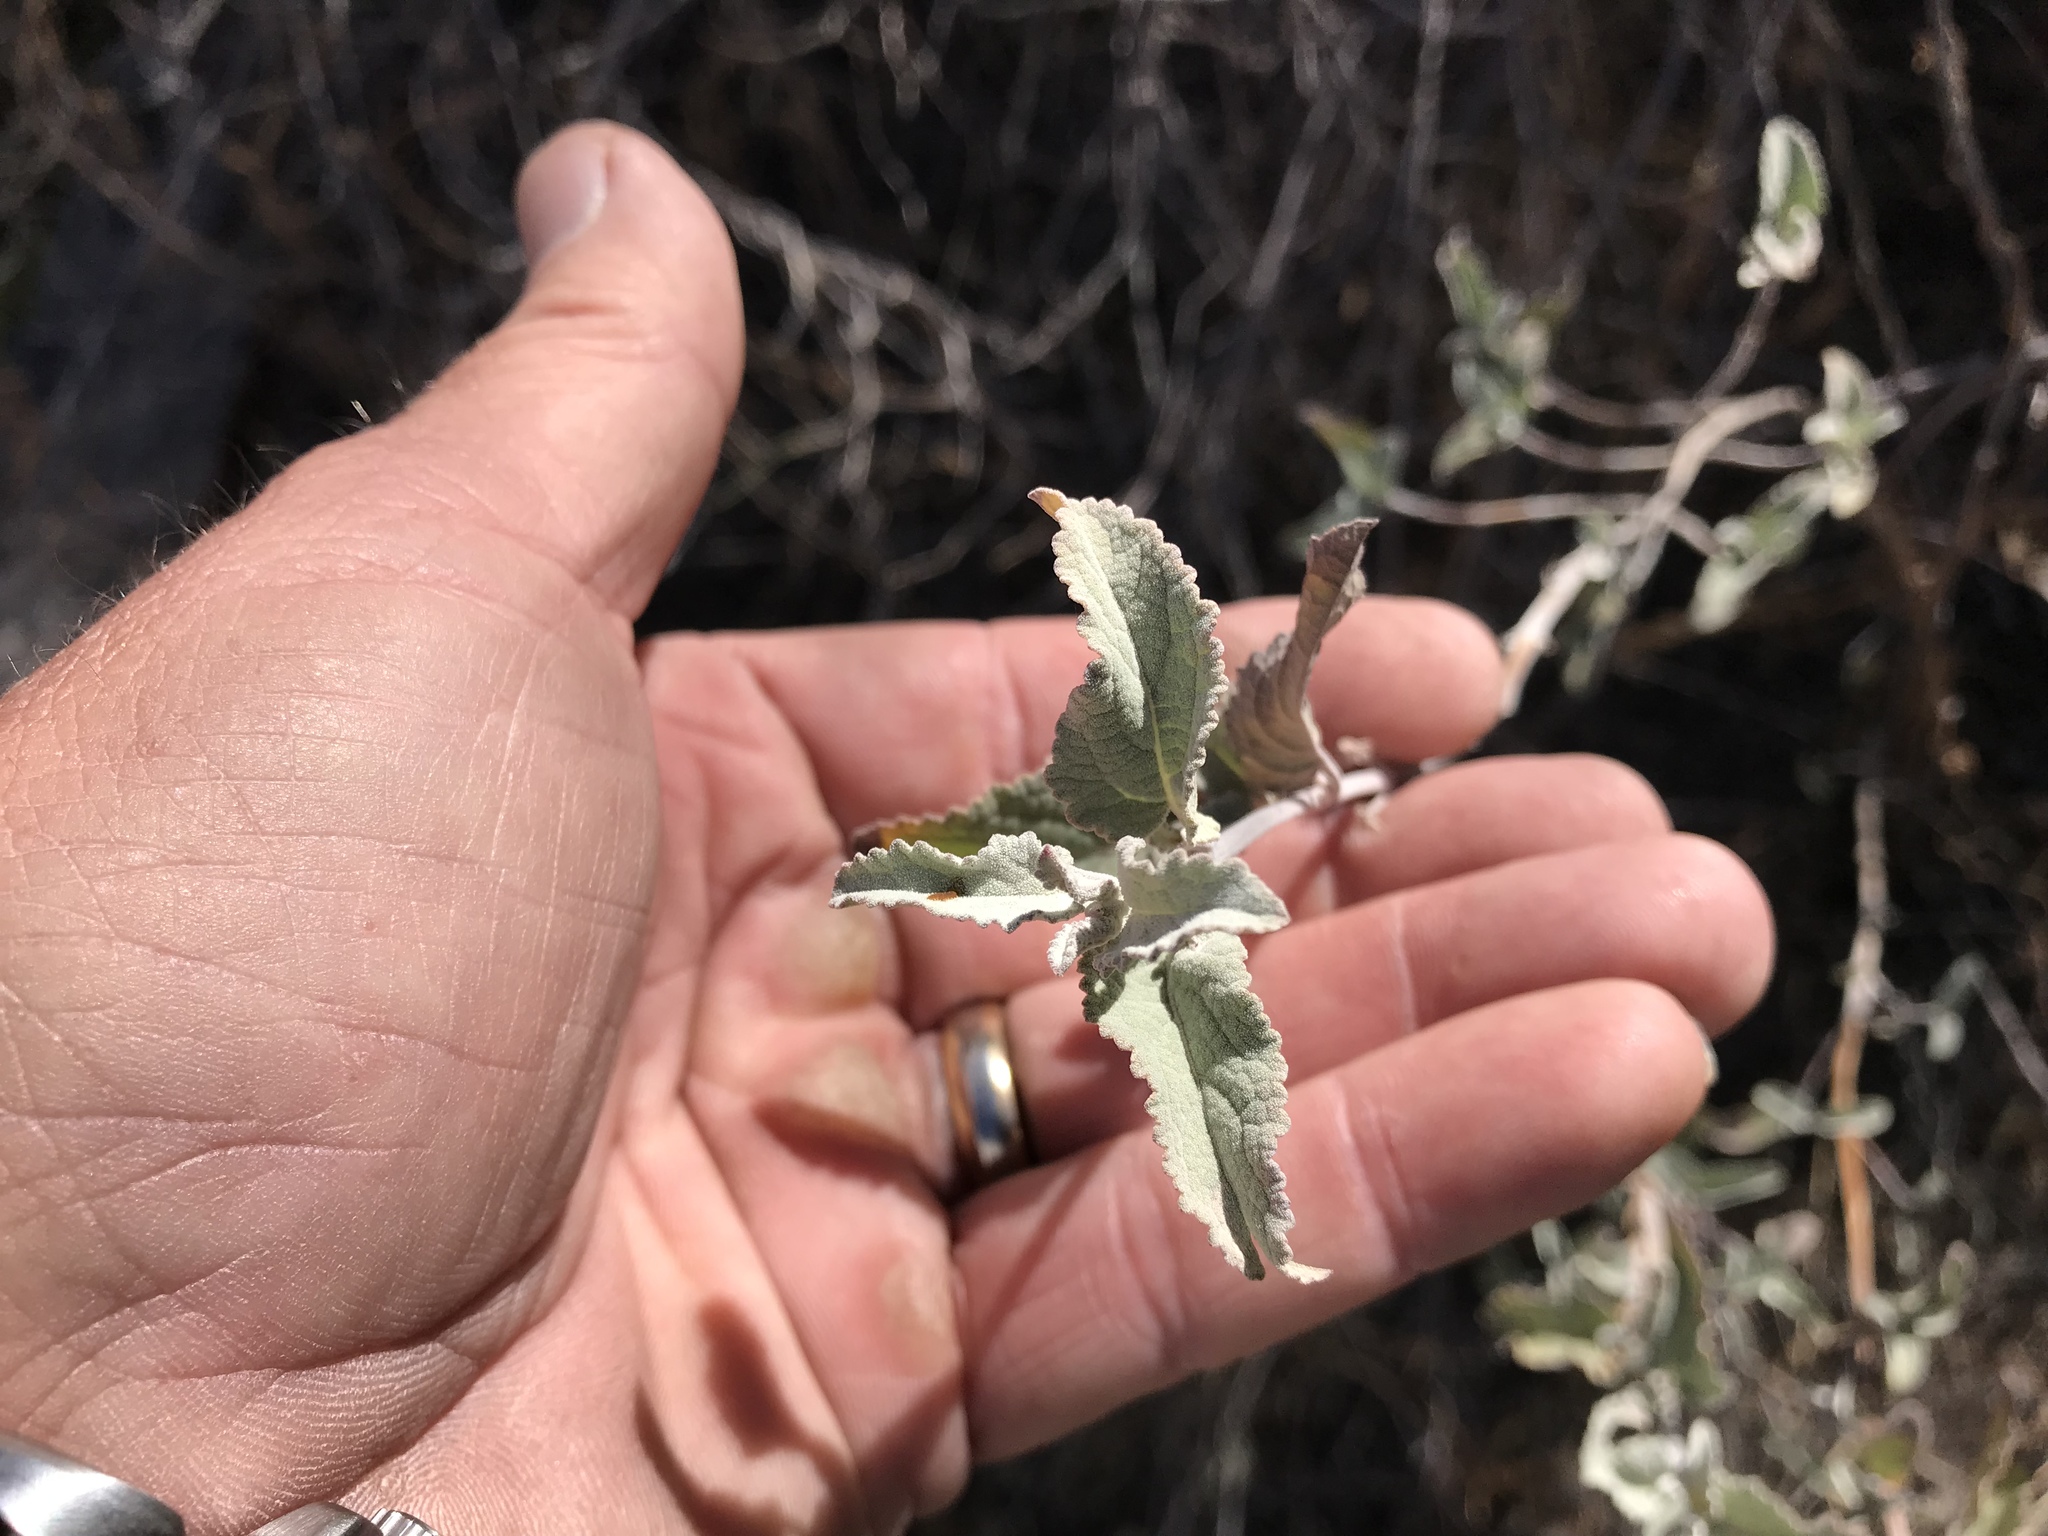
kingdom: Plantae
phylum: Tracheophyta
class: Magnoliopsida
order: Lamiales
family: Lamiaceae
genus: Condea
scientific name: Condea emoryi
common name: Chia
